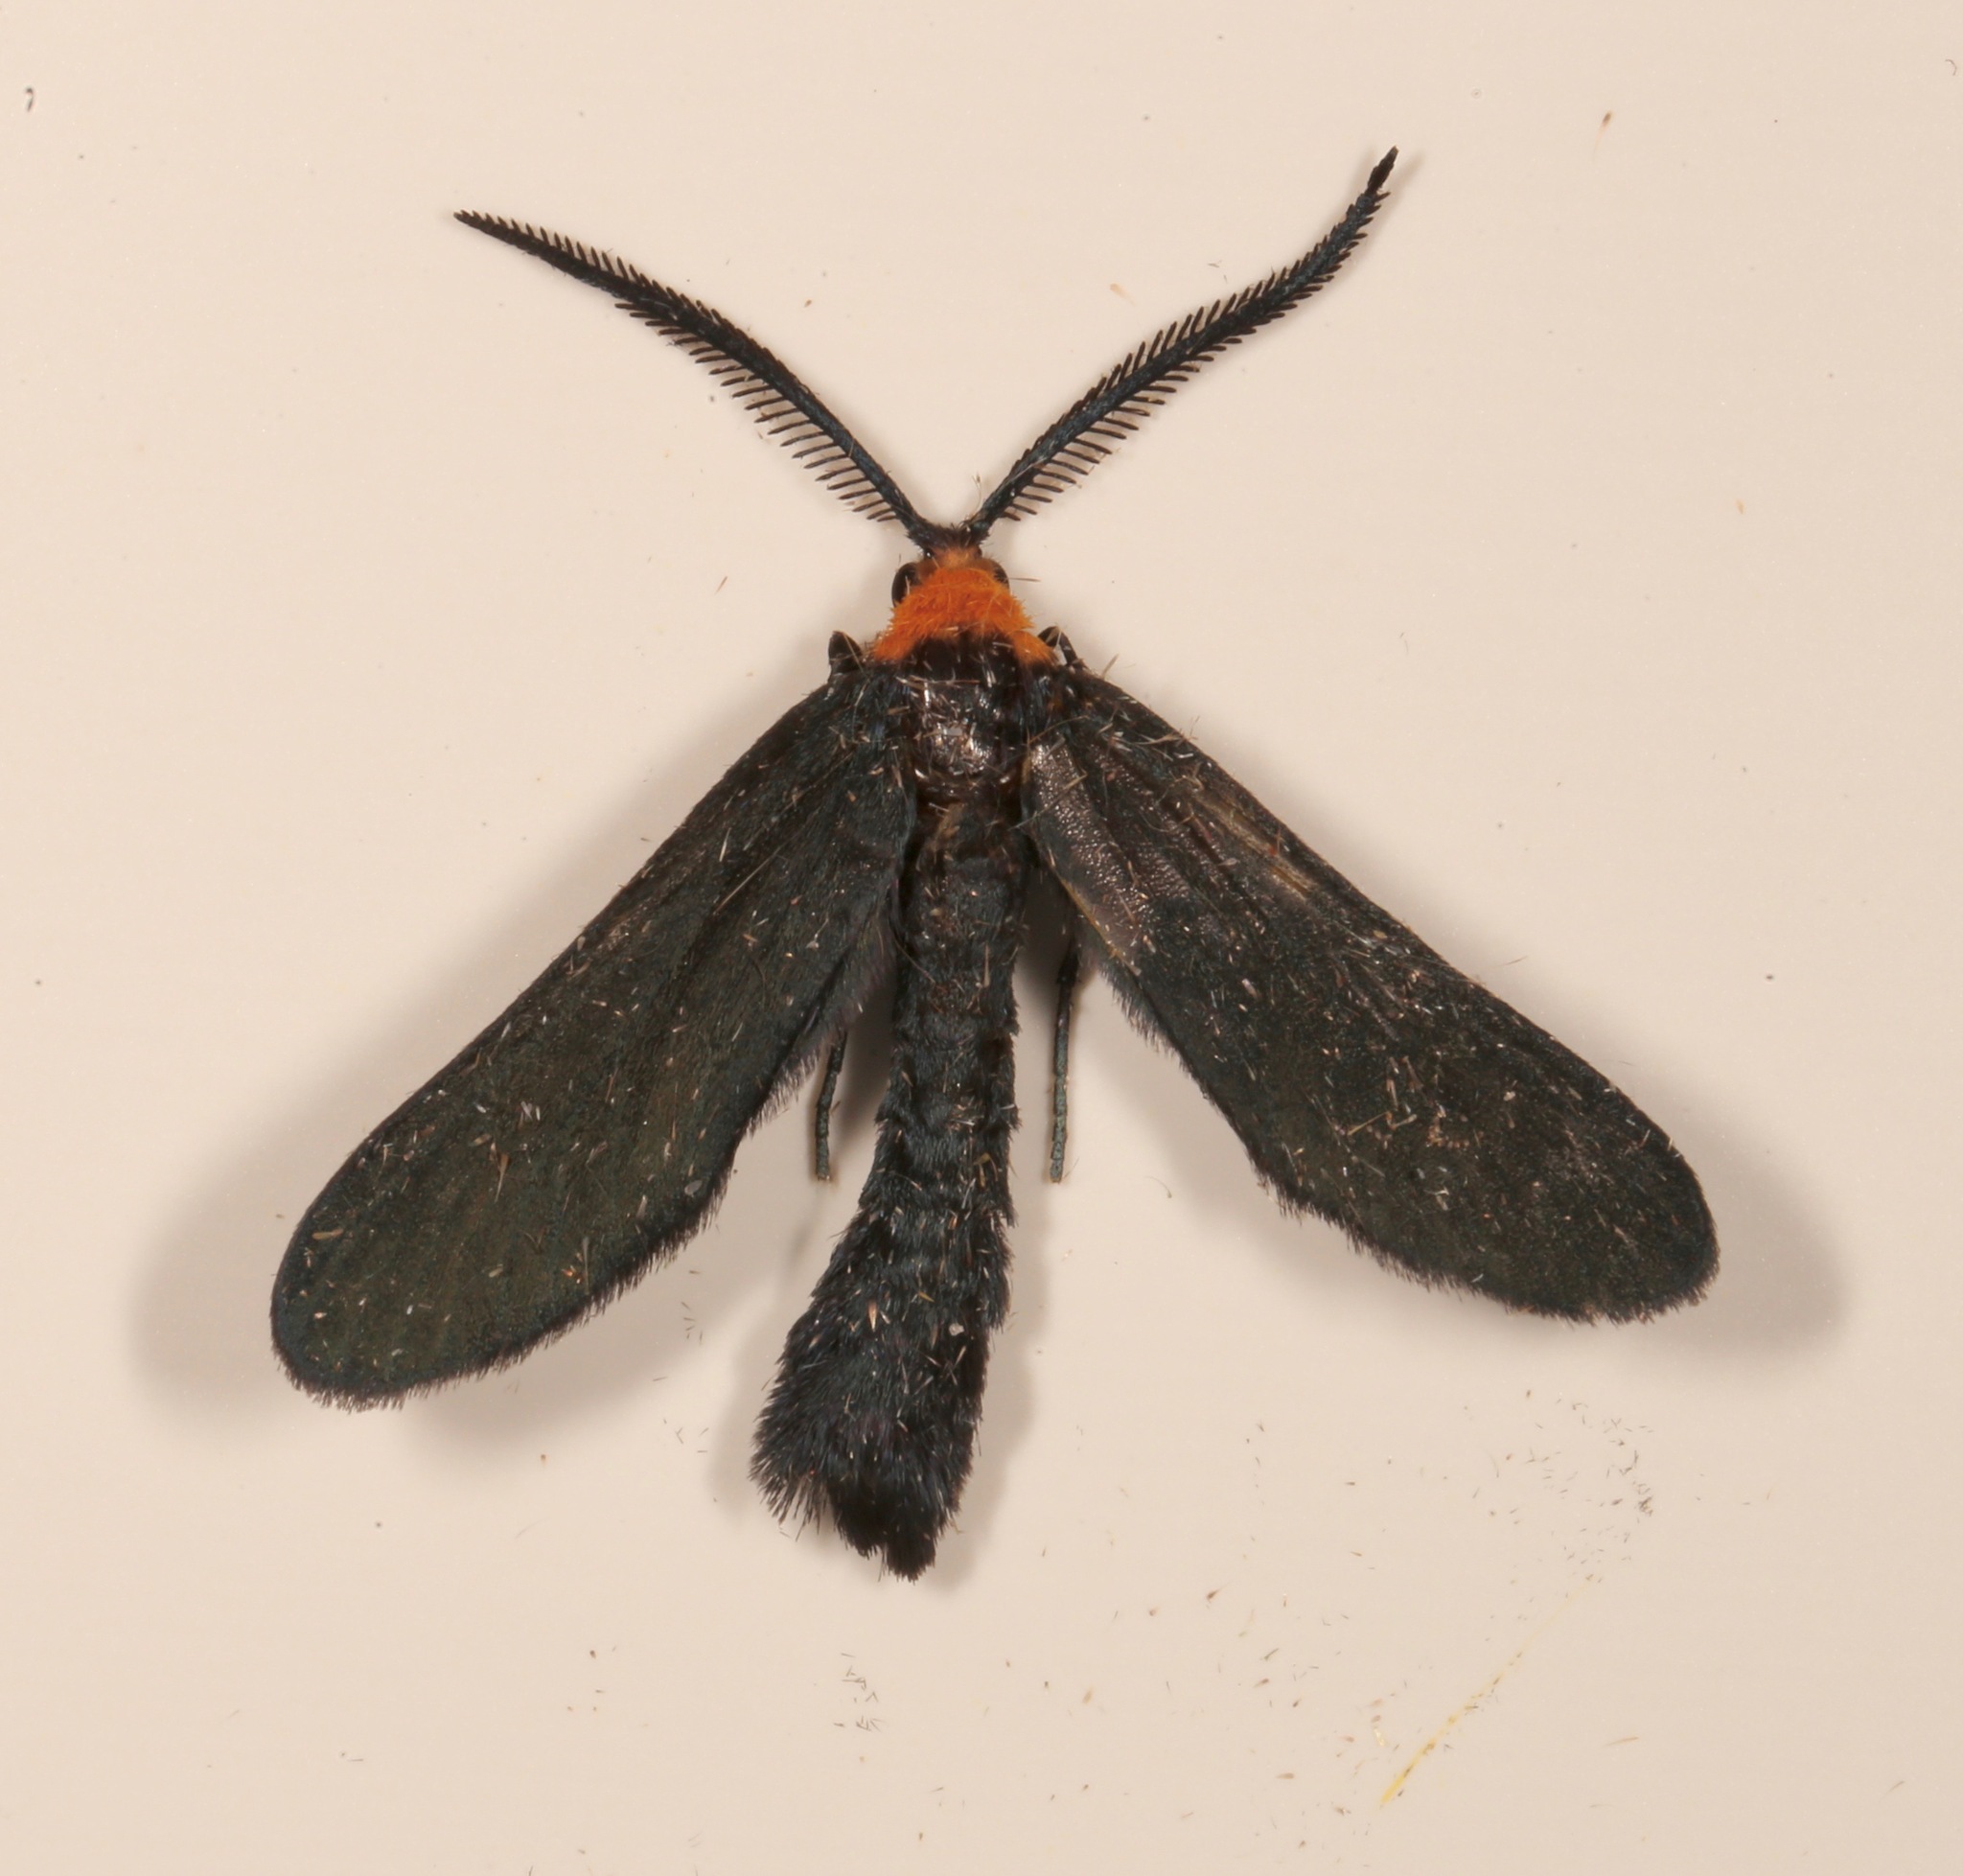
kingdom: Animalia
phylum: Arthropoda
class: Insecta
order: Lepidoptera
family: Zygaenidae
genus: Harrisina
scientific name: Harrisina americana
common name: Grapeleaf skeletonizer moth
